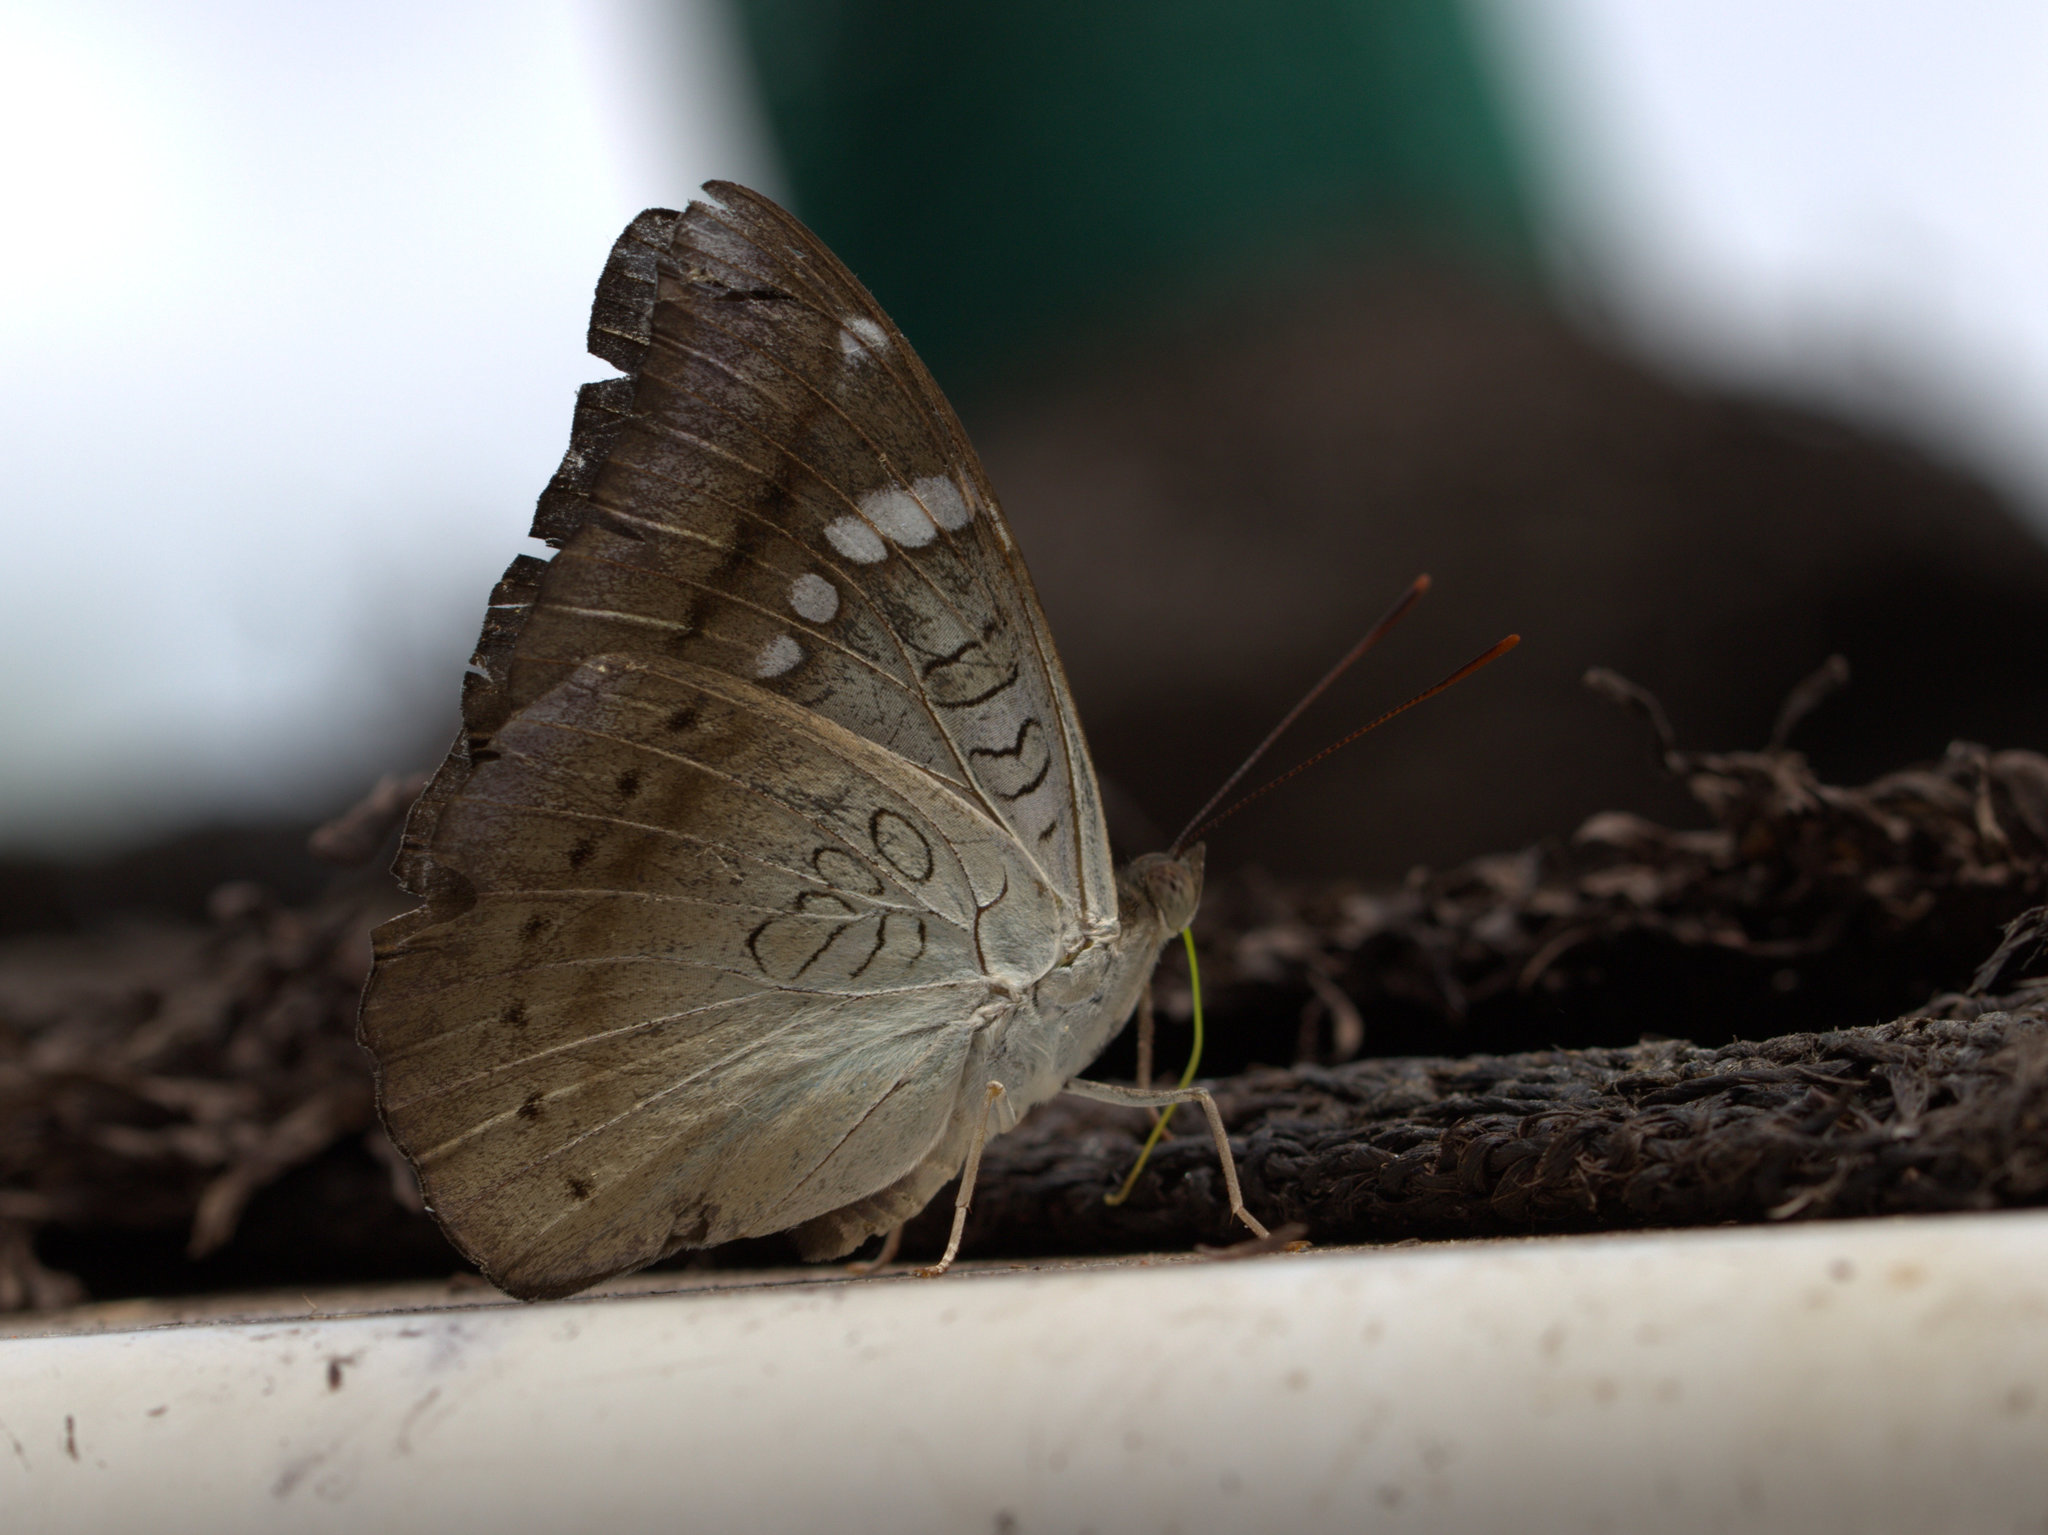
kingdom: Animalia
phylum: Arthropoda
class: Insecta
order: Lepidoptera
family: Nymphalidae
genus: Euthalia
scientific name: Euthalia aconthea
